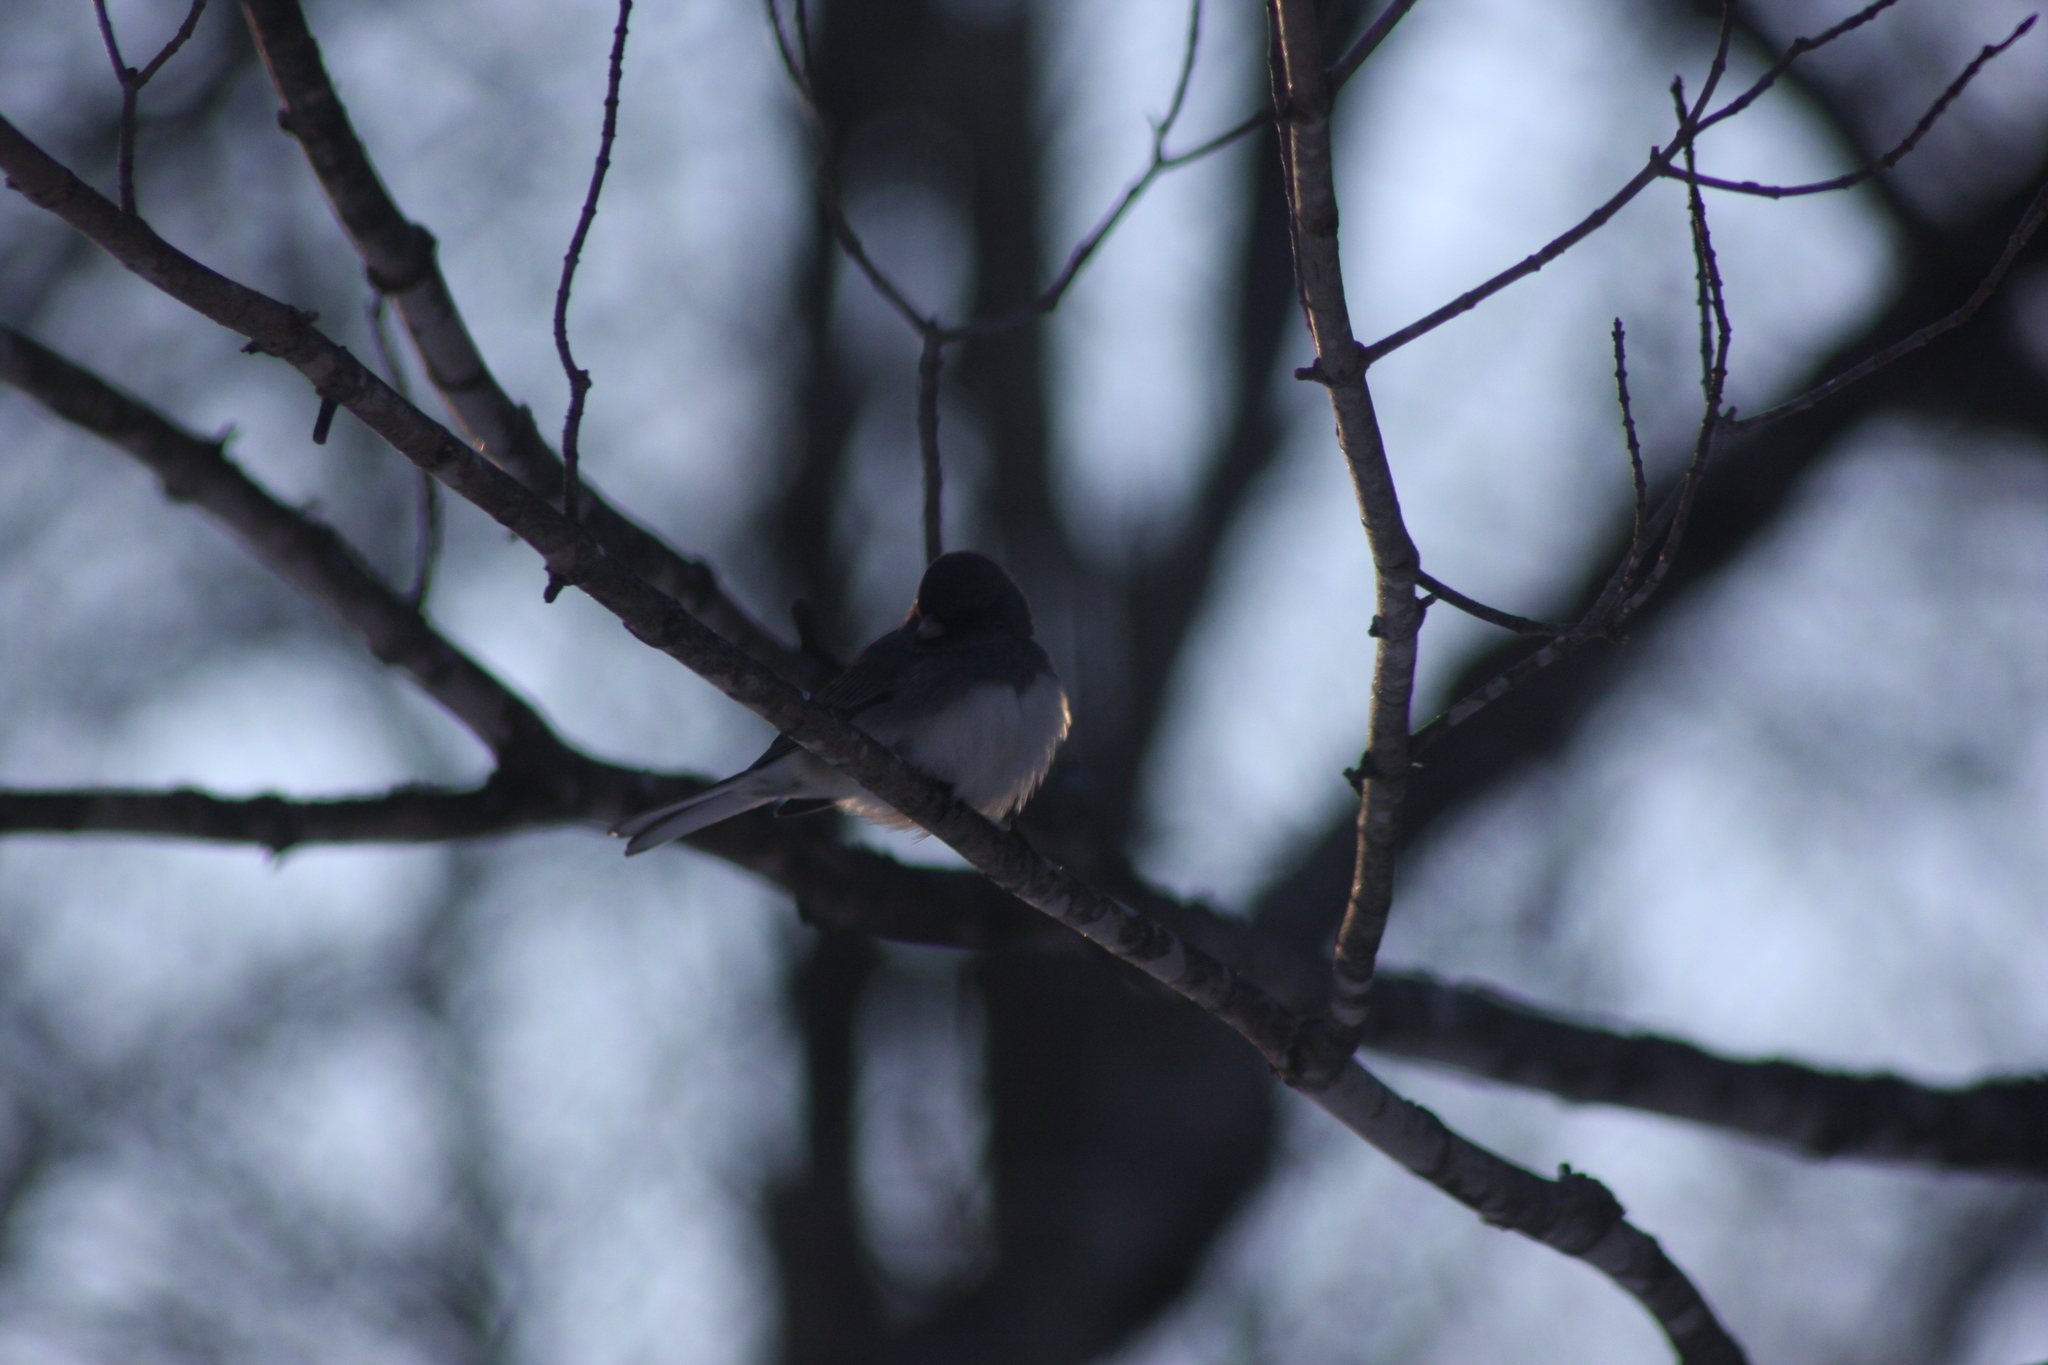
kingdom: Animalia
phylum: Chordata
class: Aves
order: Passeriformes
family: Passerellidae
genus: Junco
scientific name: Junco hyemalis
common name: Dark-eyed junco
